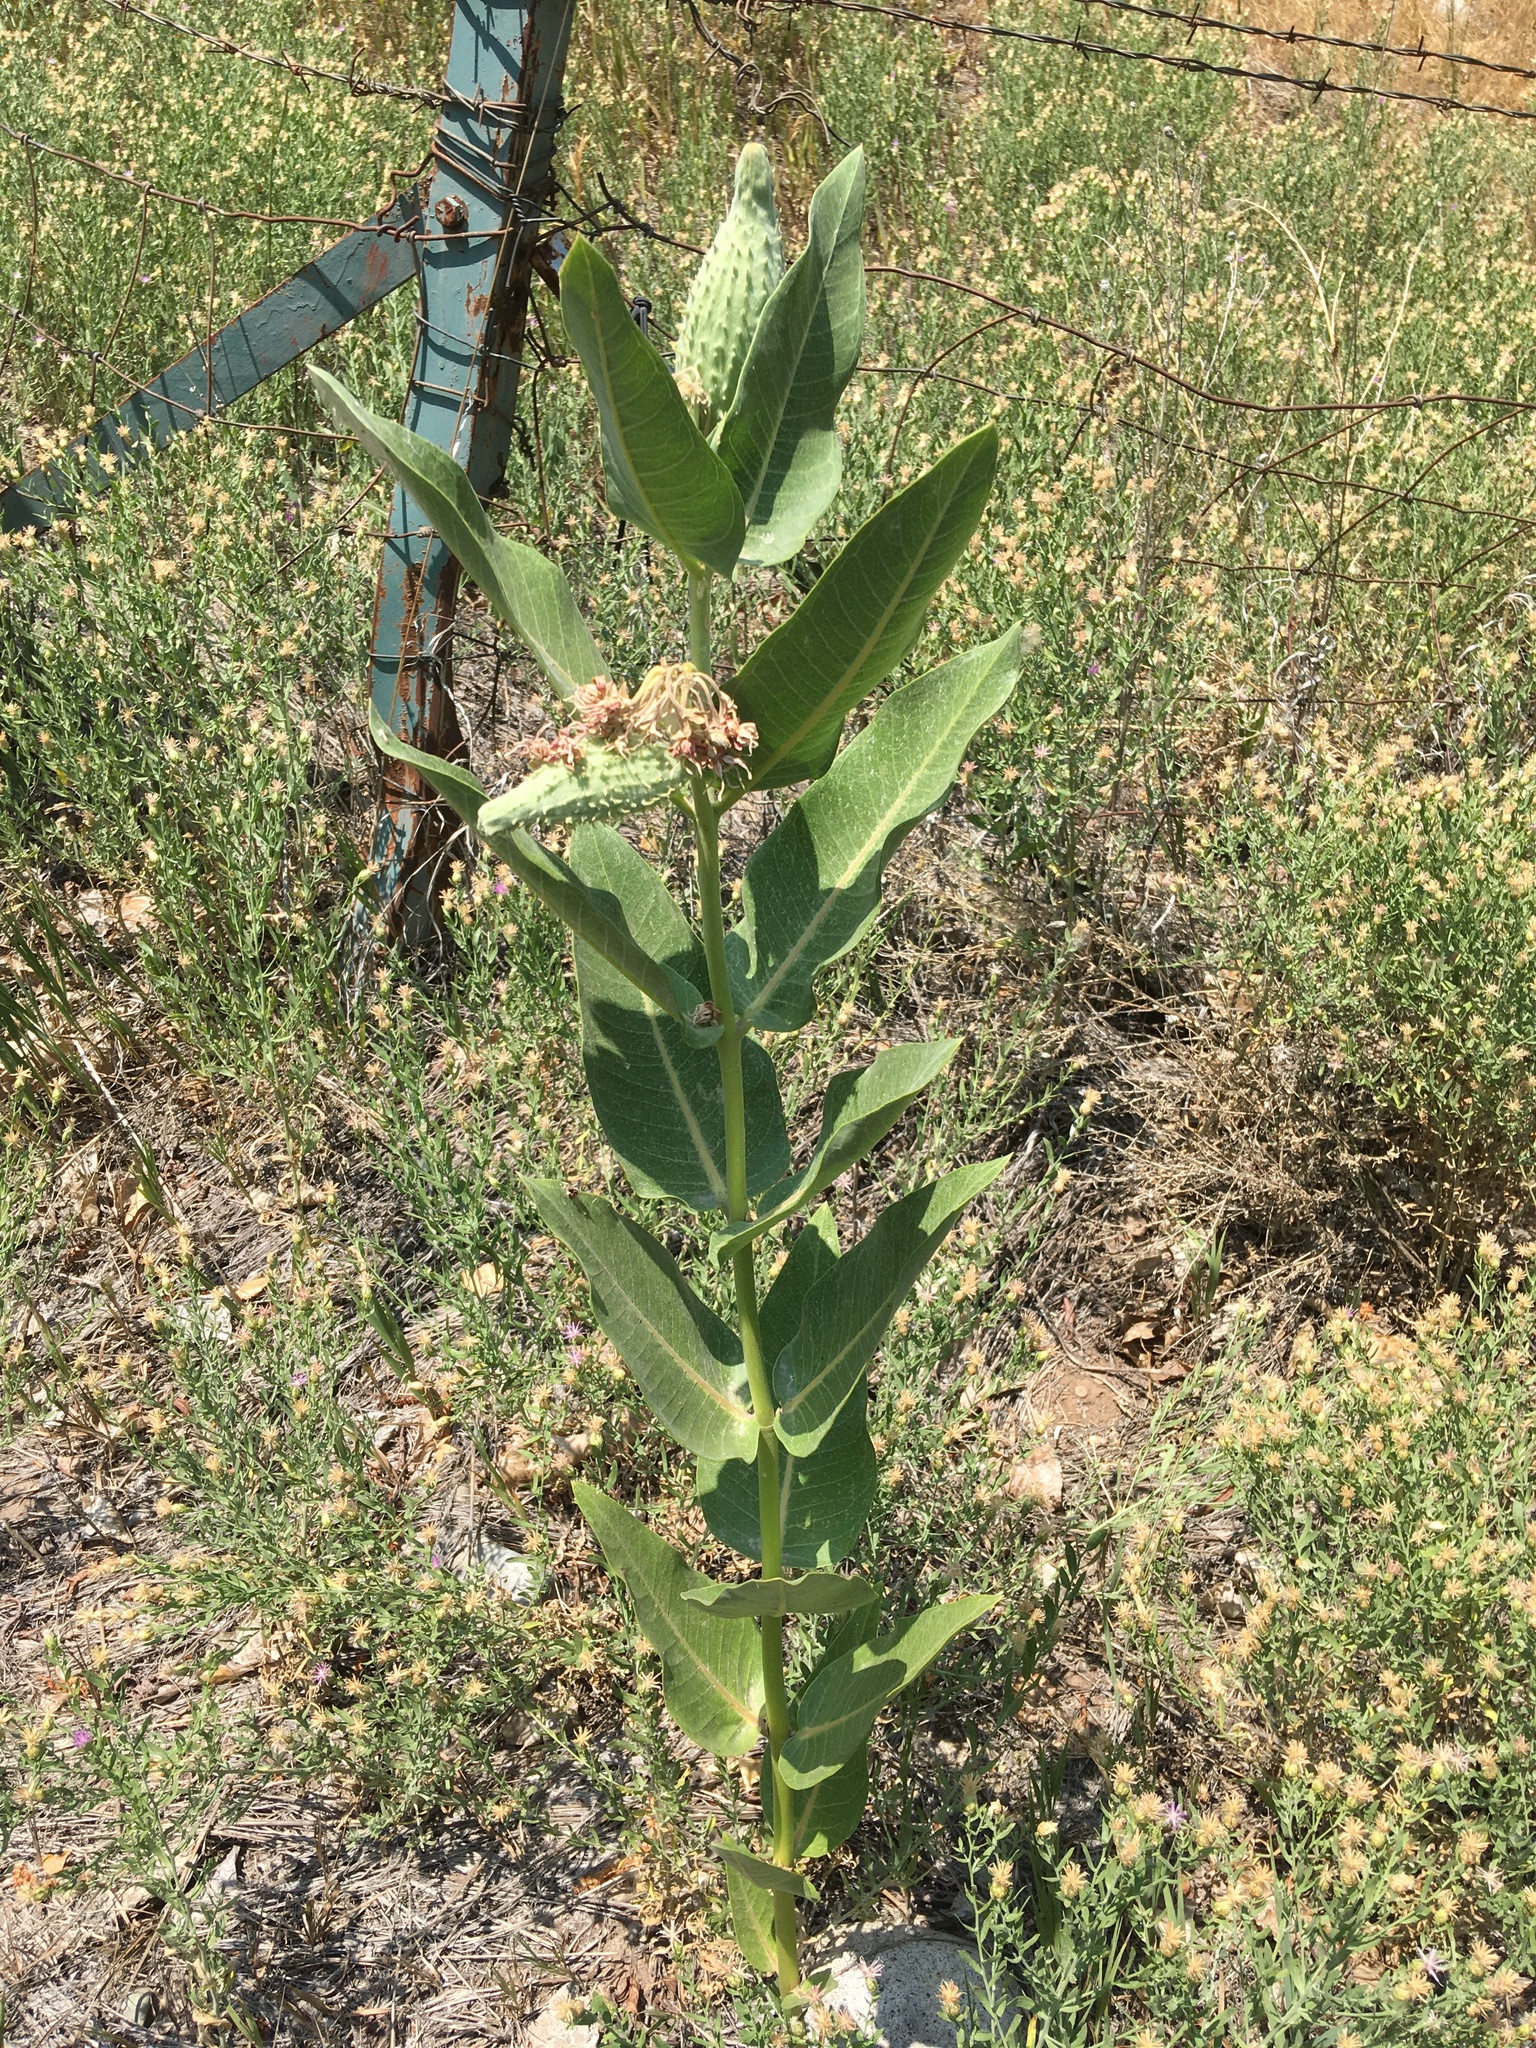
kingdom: Plantae
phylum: Tracheophyta
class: Magnoliopsida
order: Gentianales
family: Apocynaceae
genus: Asclepias
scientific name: Asclepias speciosa
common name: Showy milkweed
